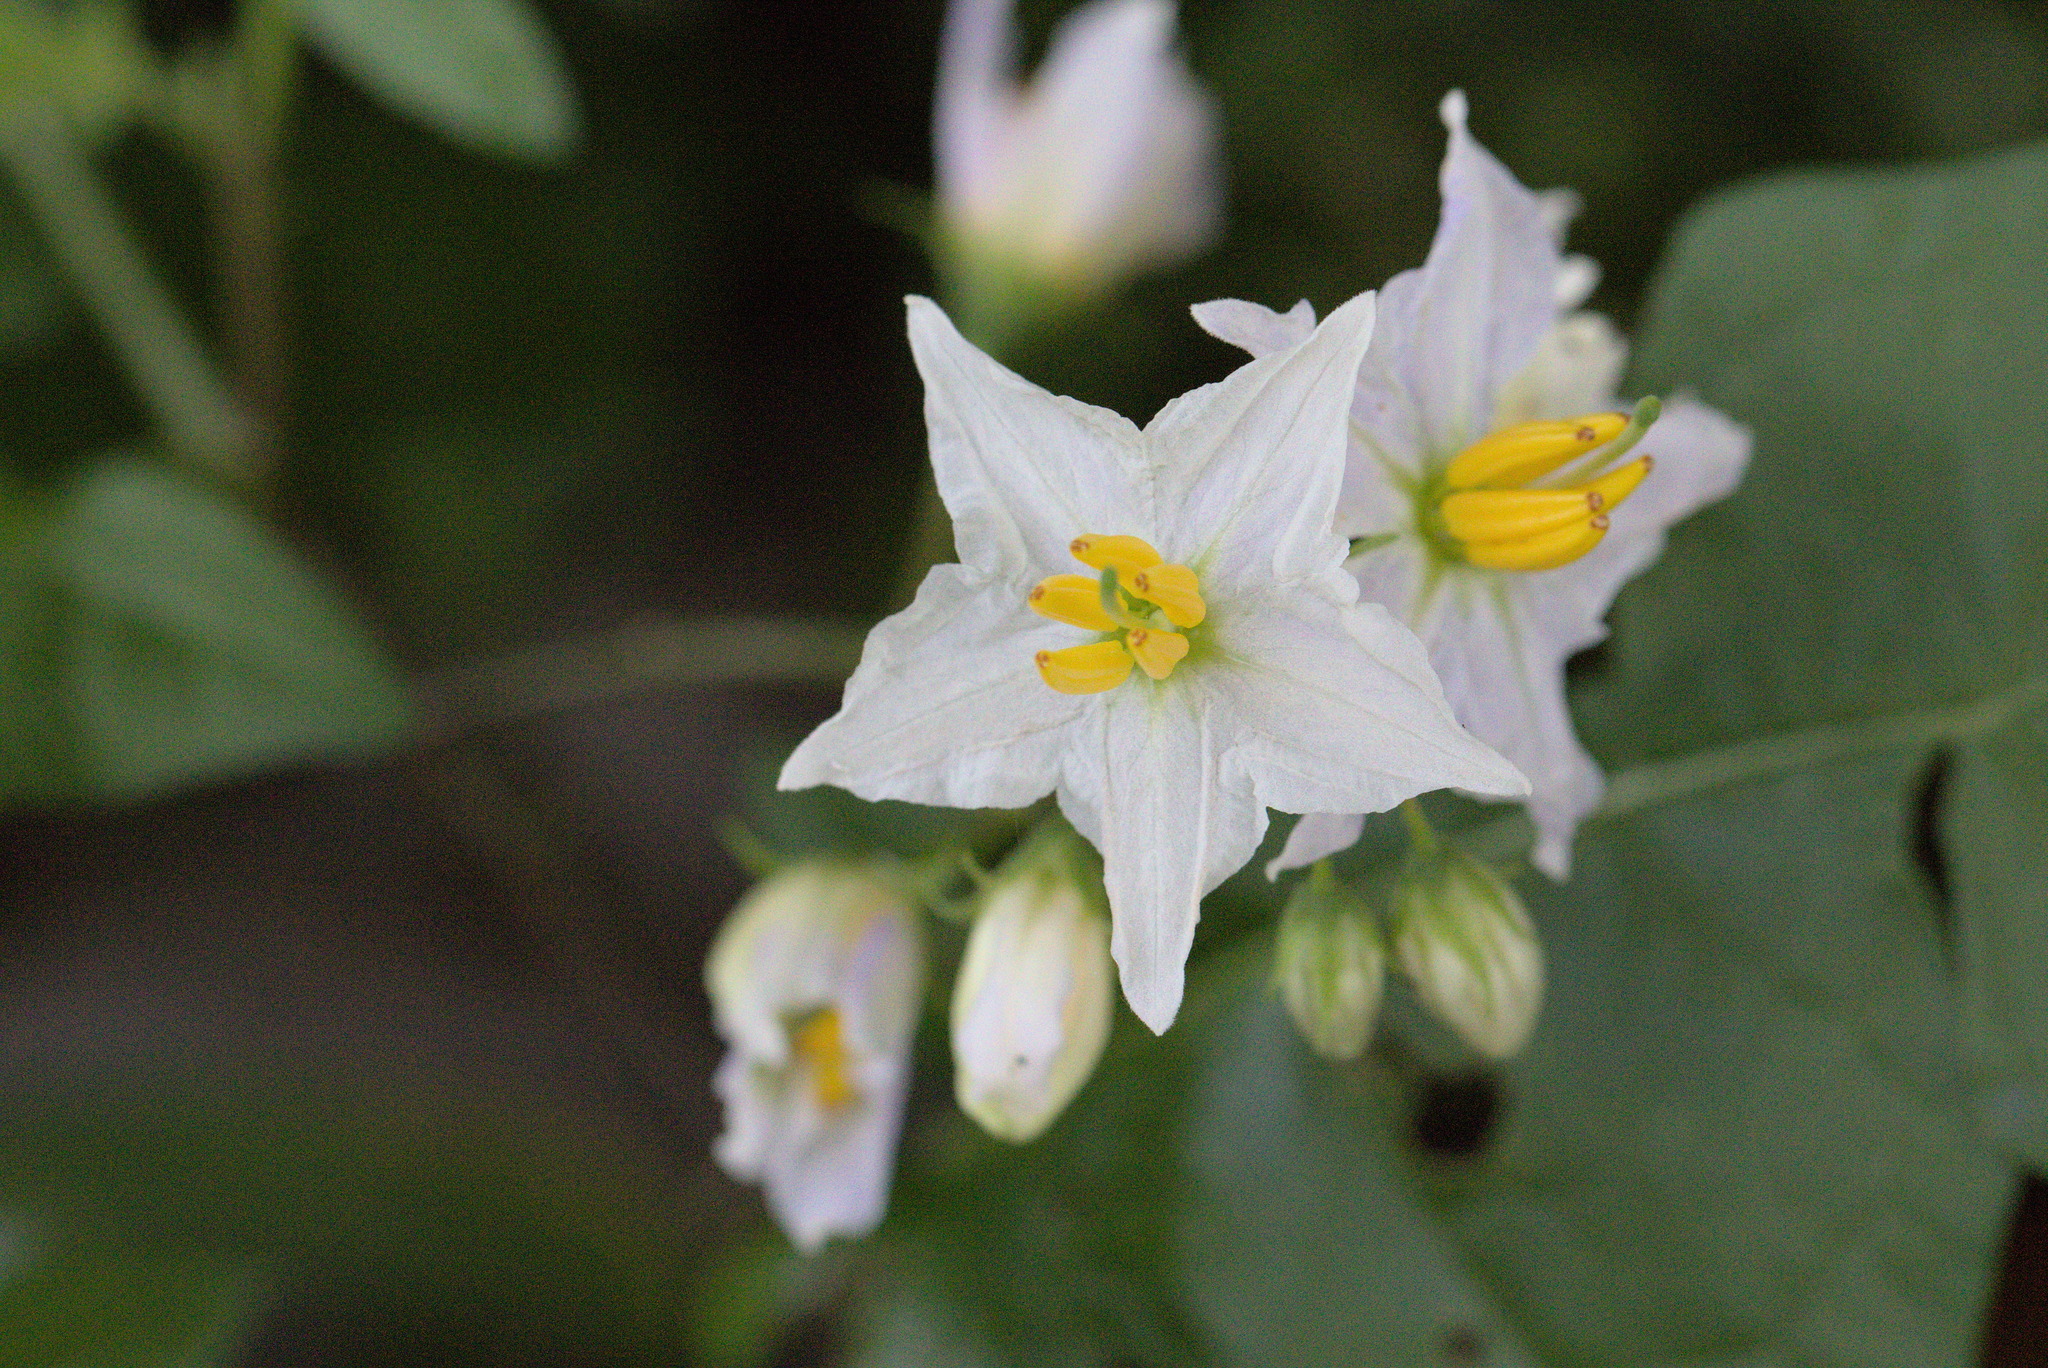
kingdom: Plantae
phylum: Tracheophyta
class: Magnoliopsida
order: Solanales
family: Solanaceae
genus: Solanum
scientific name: Solanum carolinense
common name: Horse-nettle
